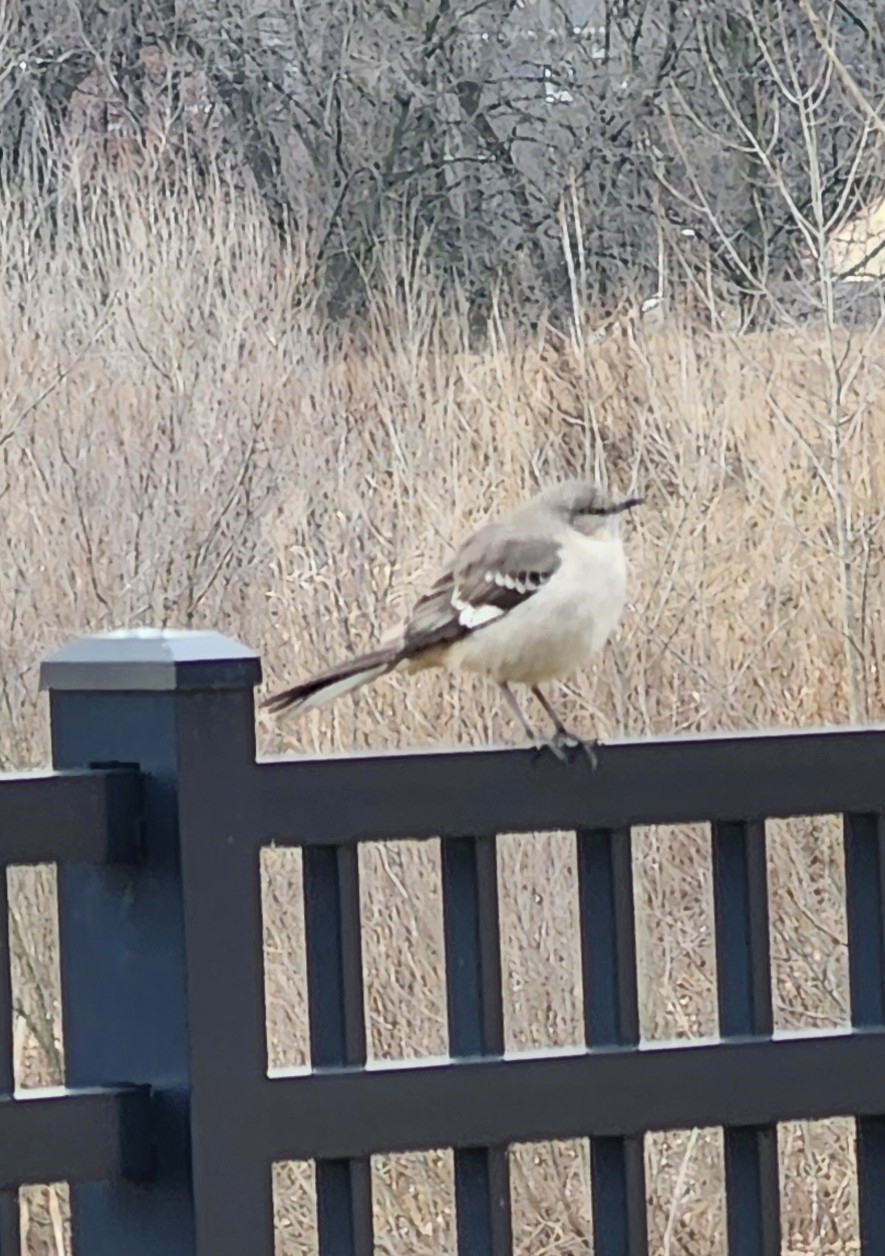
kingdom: Animalia
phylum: Chordata
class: Aves
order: Passeriformes
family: Mimidae
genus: Mimus
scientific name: Mimus polyglottos
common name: Northern mockingbird
